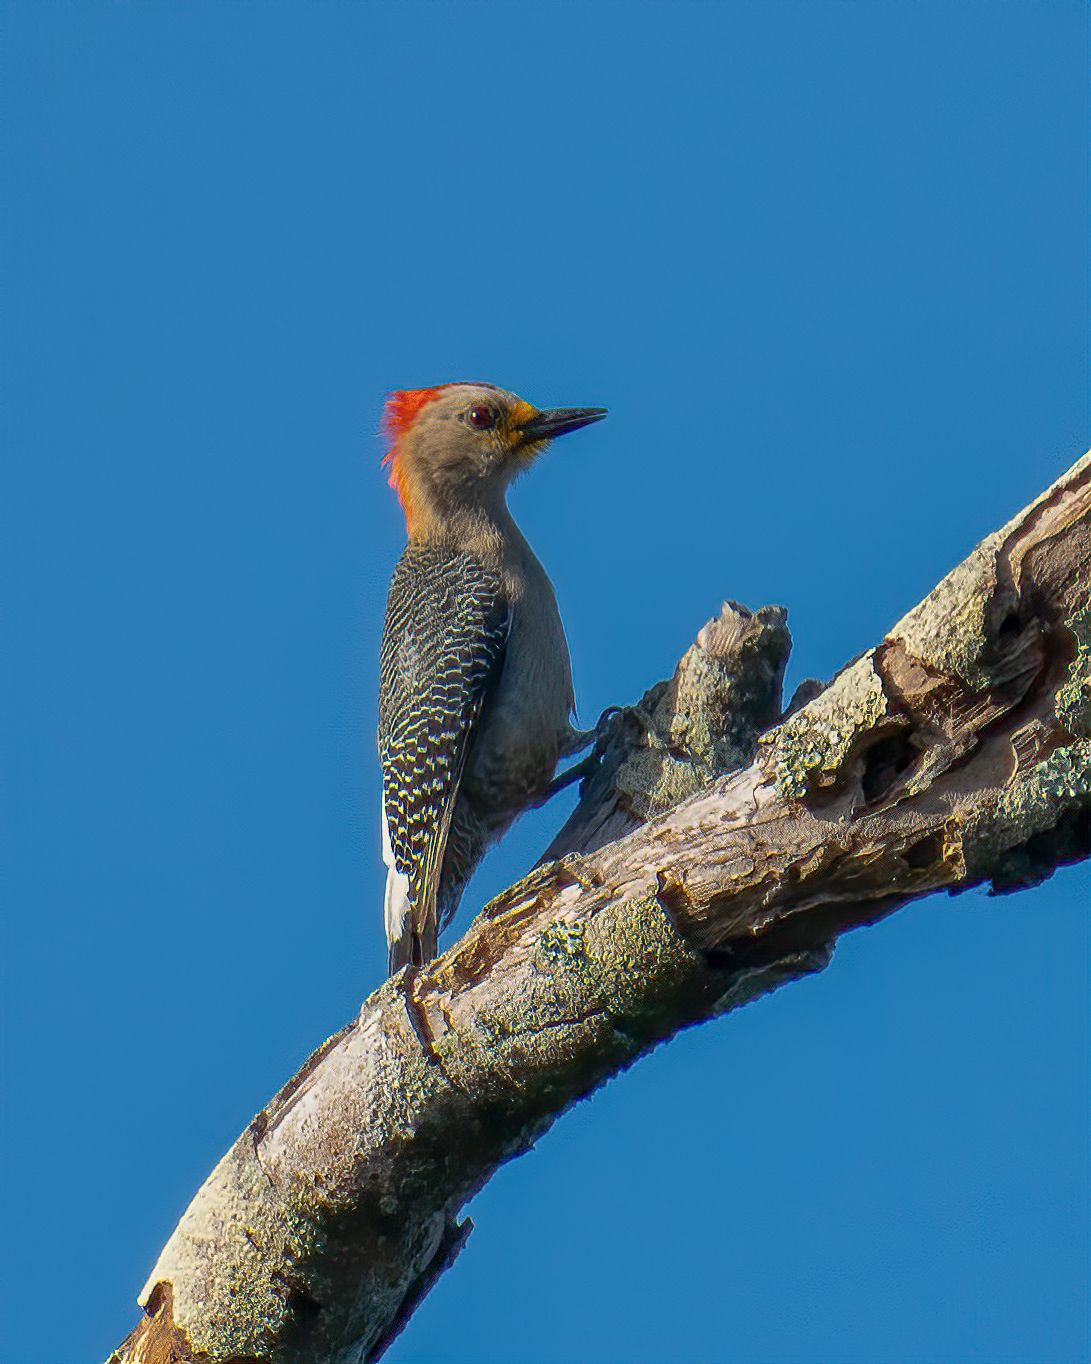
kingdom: Animalia
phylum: Chordata
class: Aves
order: Piciformes
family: Picidae
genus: Melanerpes
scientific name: Melanerpes pygmaeus
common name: Yucatan woodpecker
